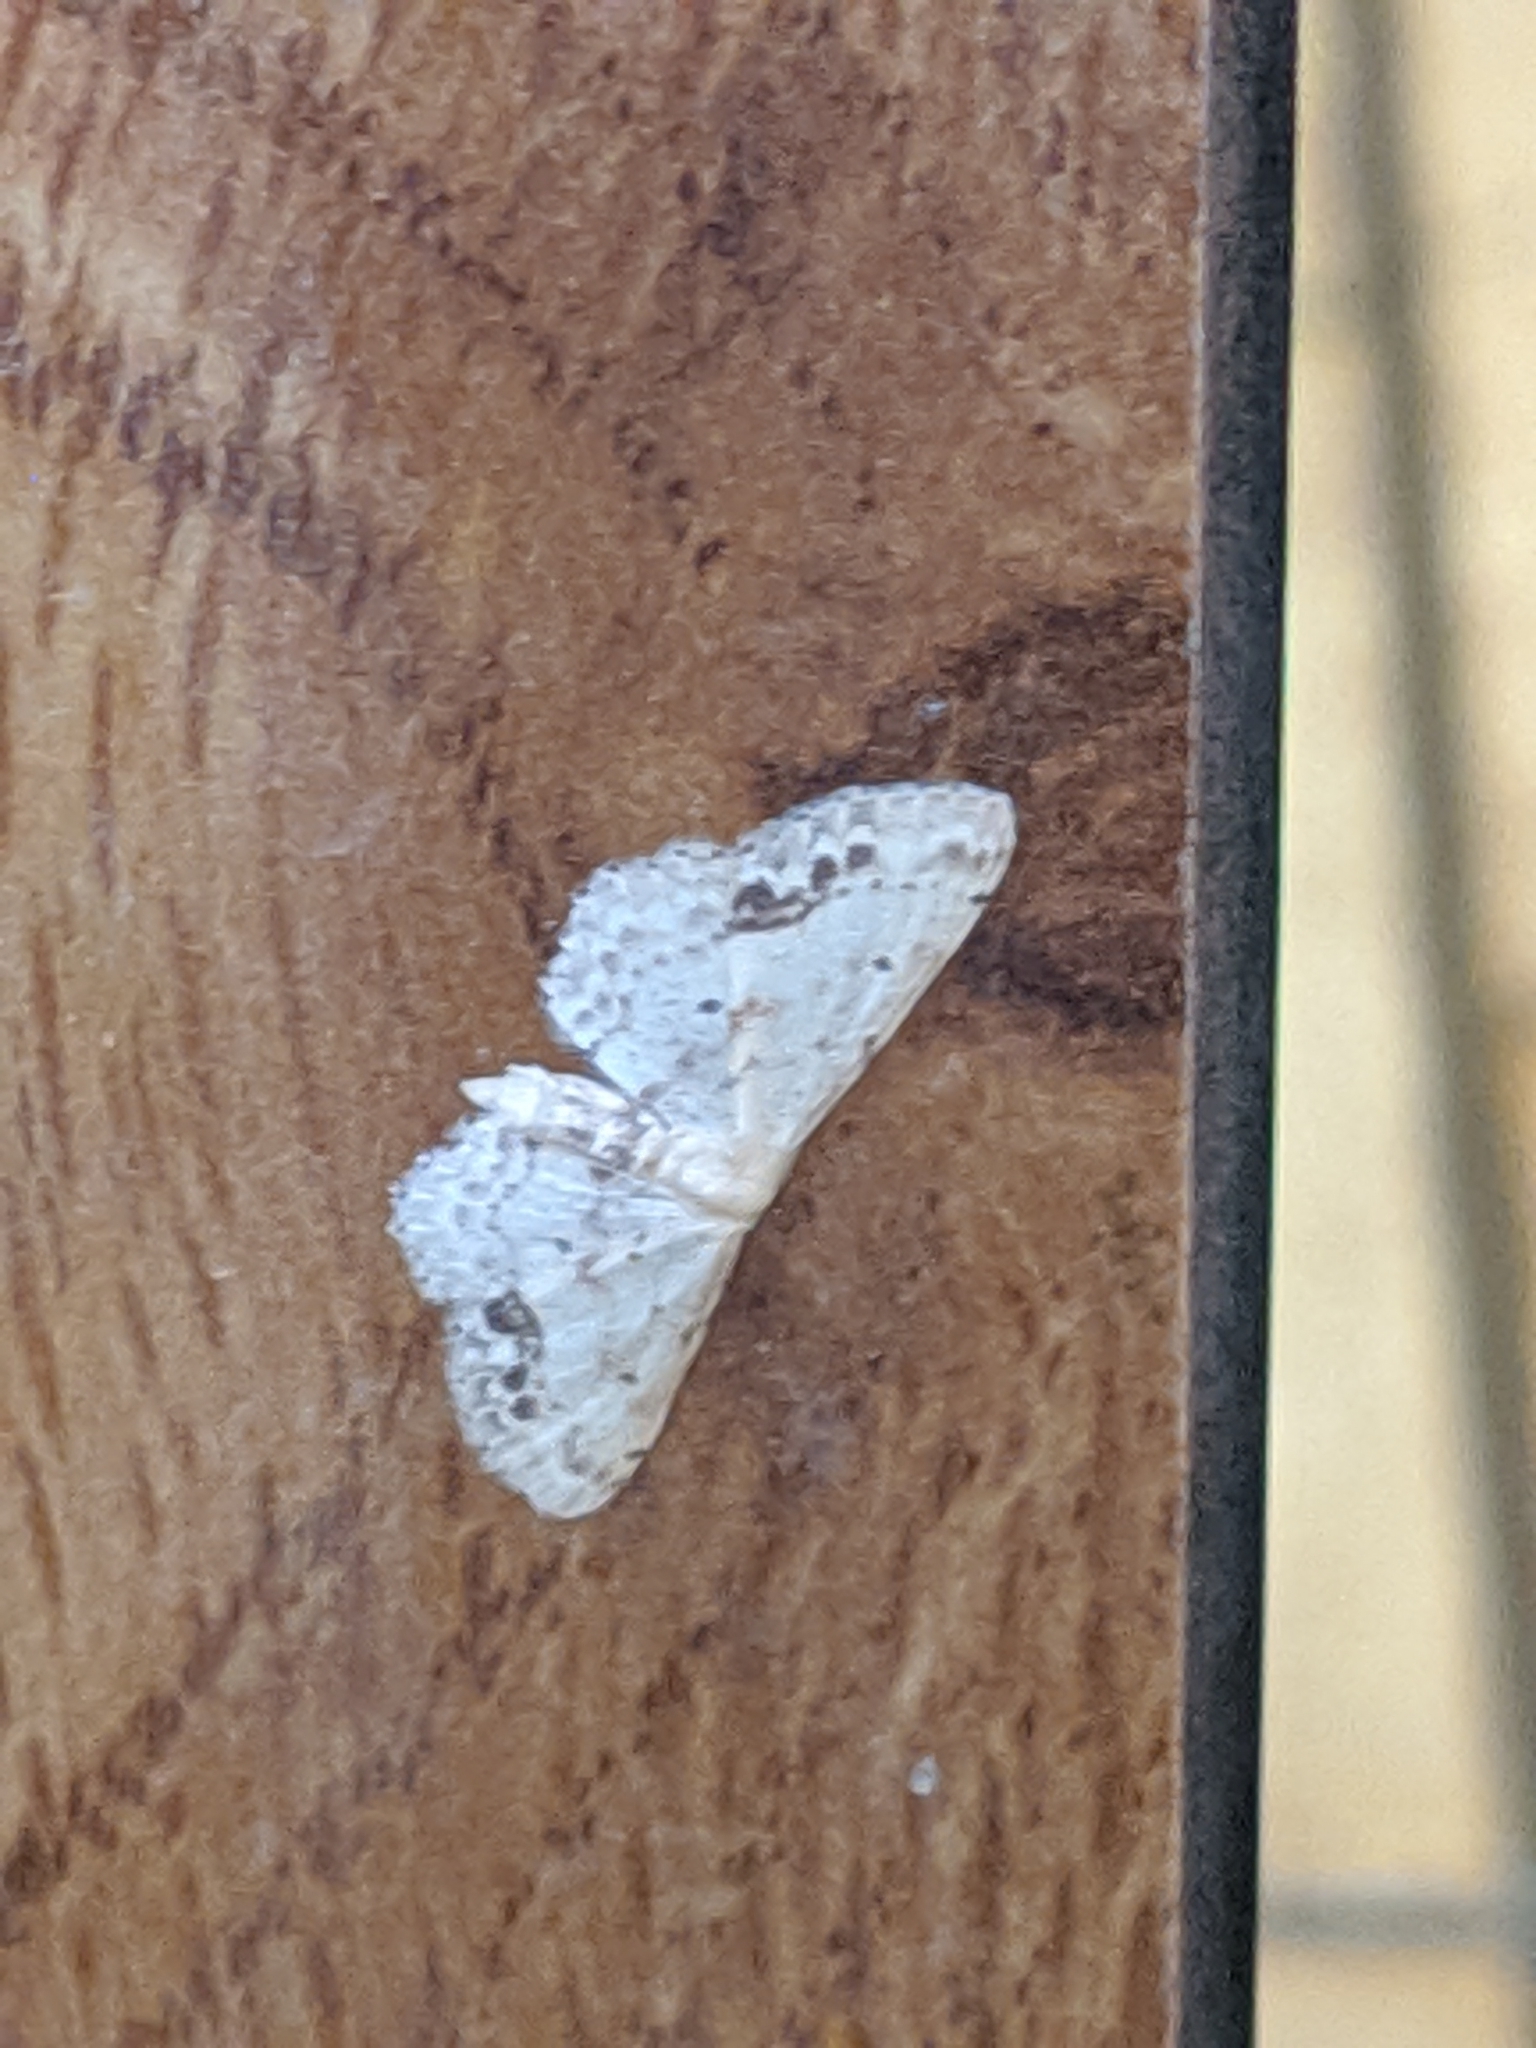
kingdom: Animalia
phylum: Arthropoda
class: Insecta
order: Lepidoptera
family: Geometridae
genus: Idaea
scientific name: Idaea dimidiata
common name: Single-dotted wave
